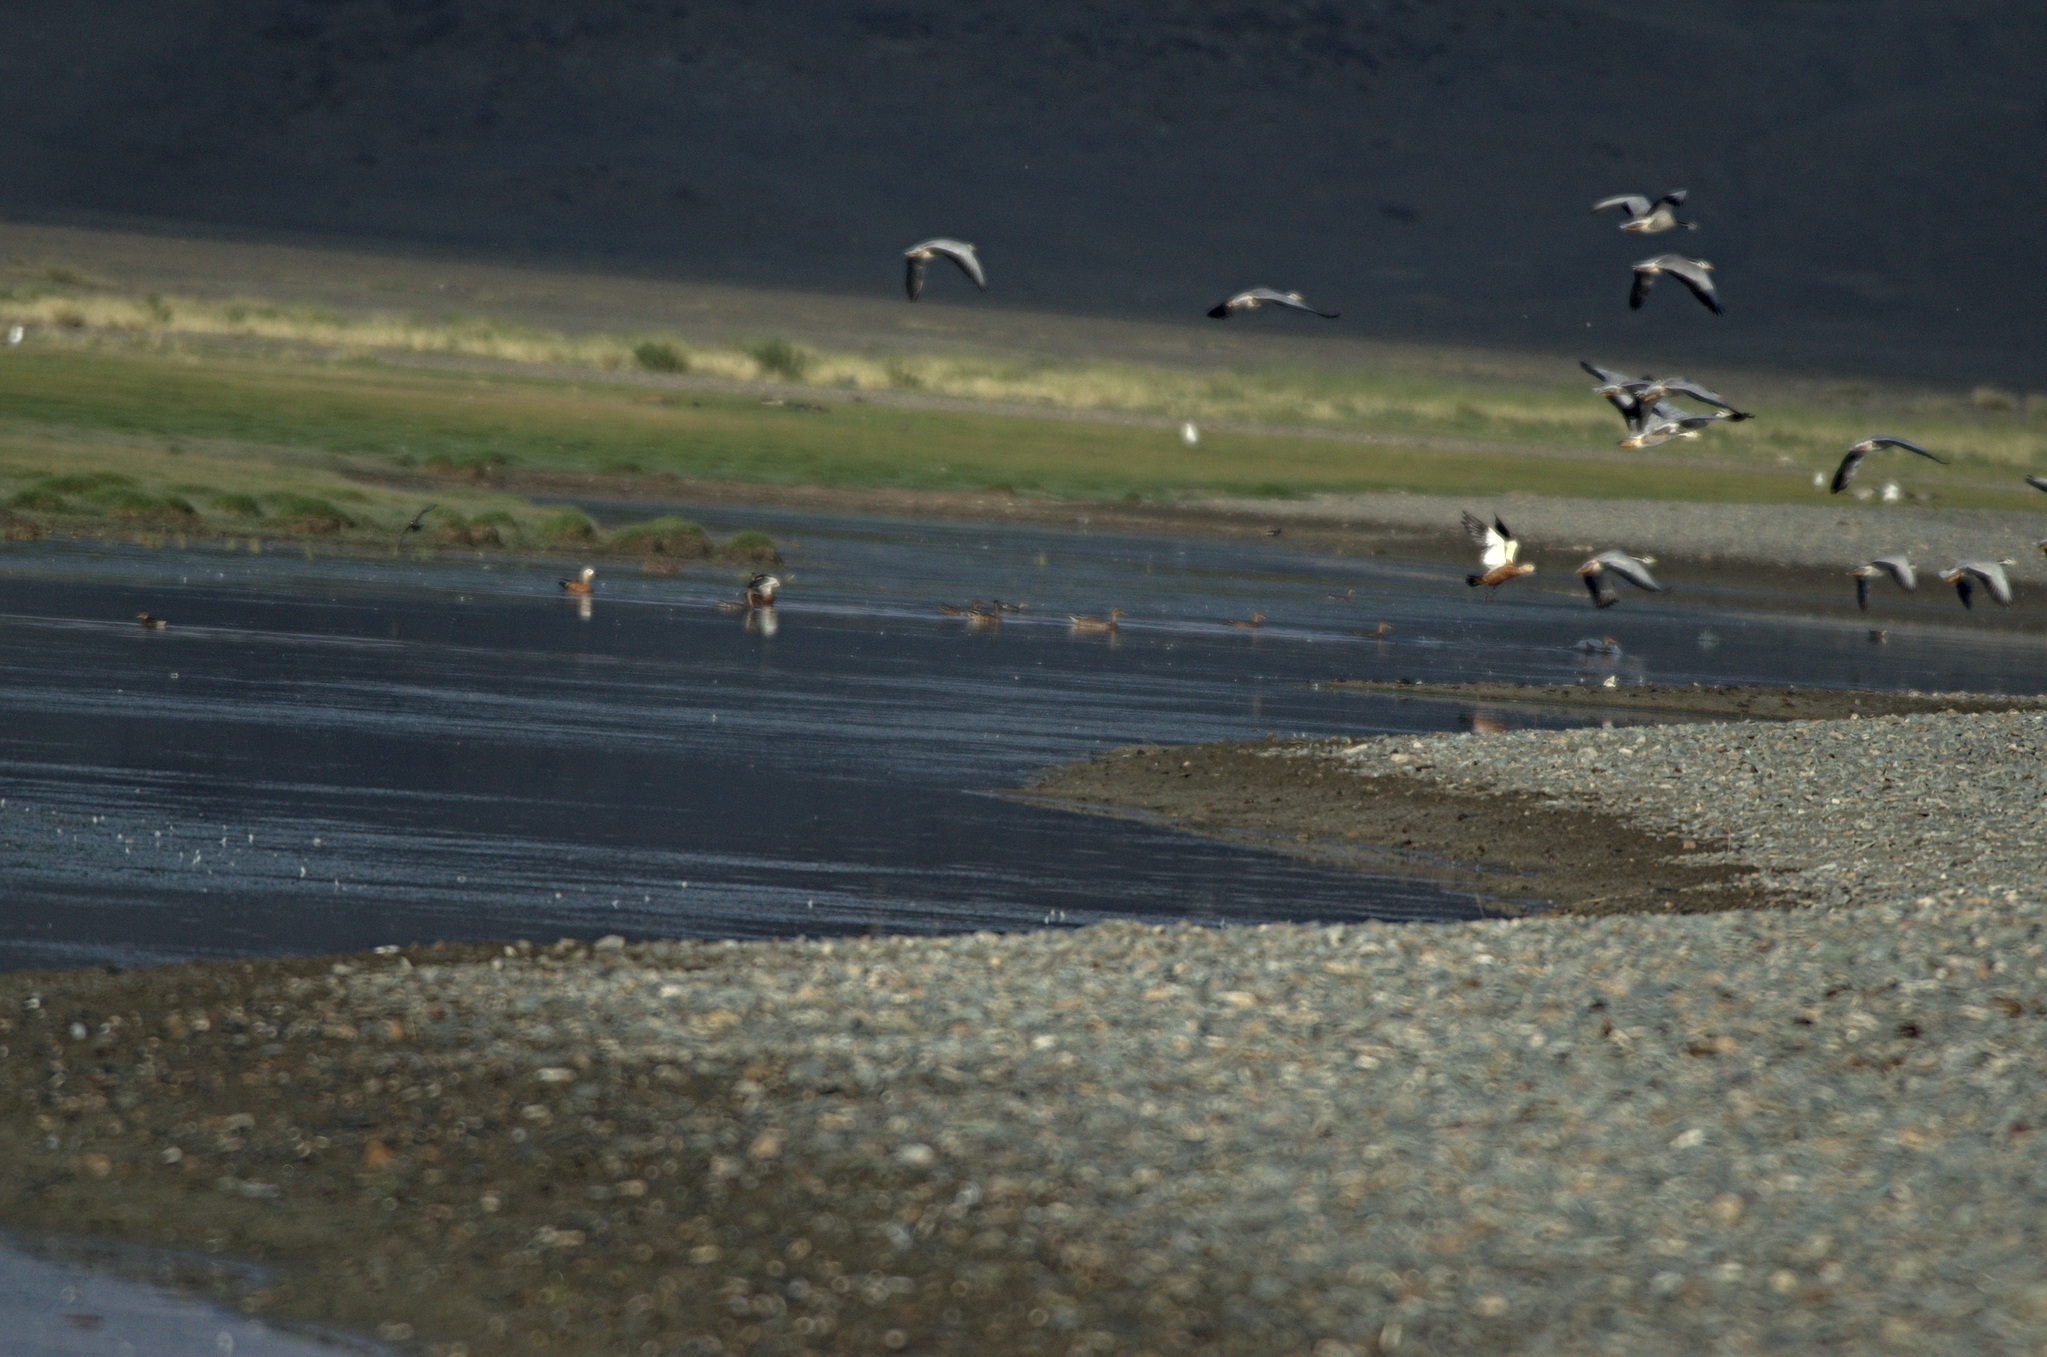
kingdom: Animalia
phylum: Chordata
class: Aves
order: Anseriformes
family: Anatidae
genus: Tadorna
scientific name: Tadorna ferruginea
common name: Ruddy shelduck
